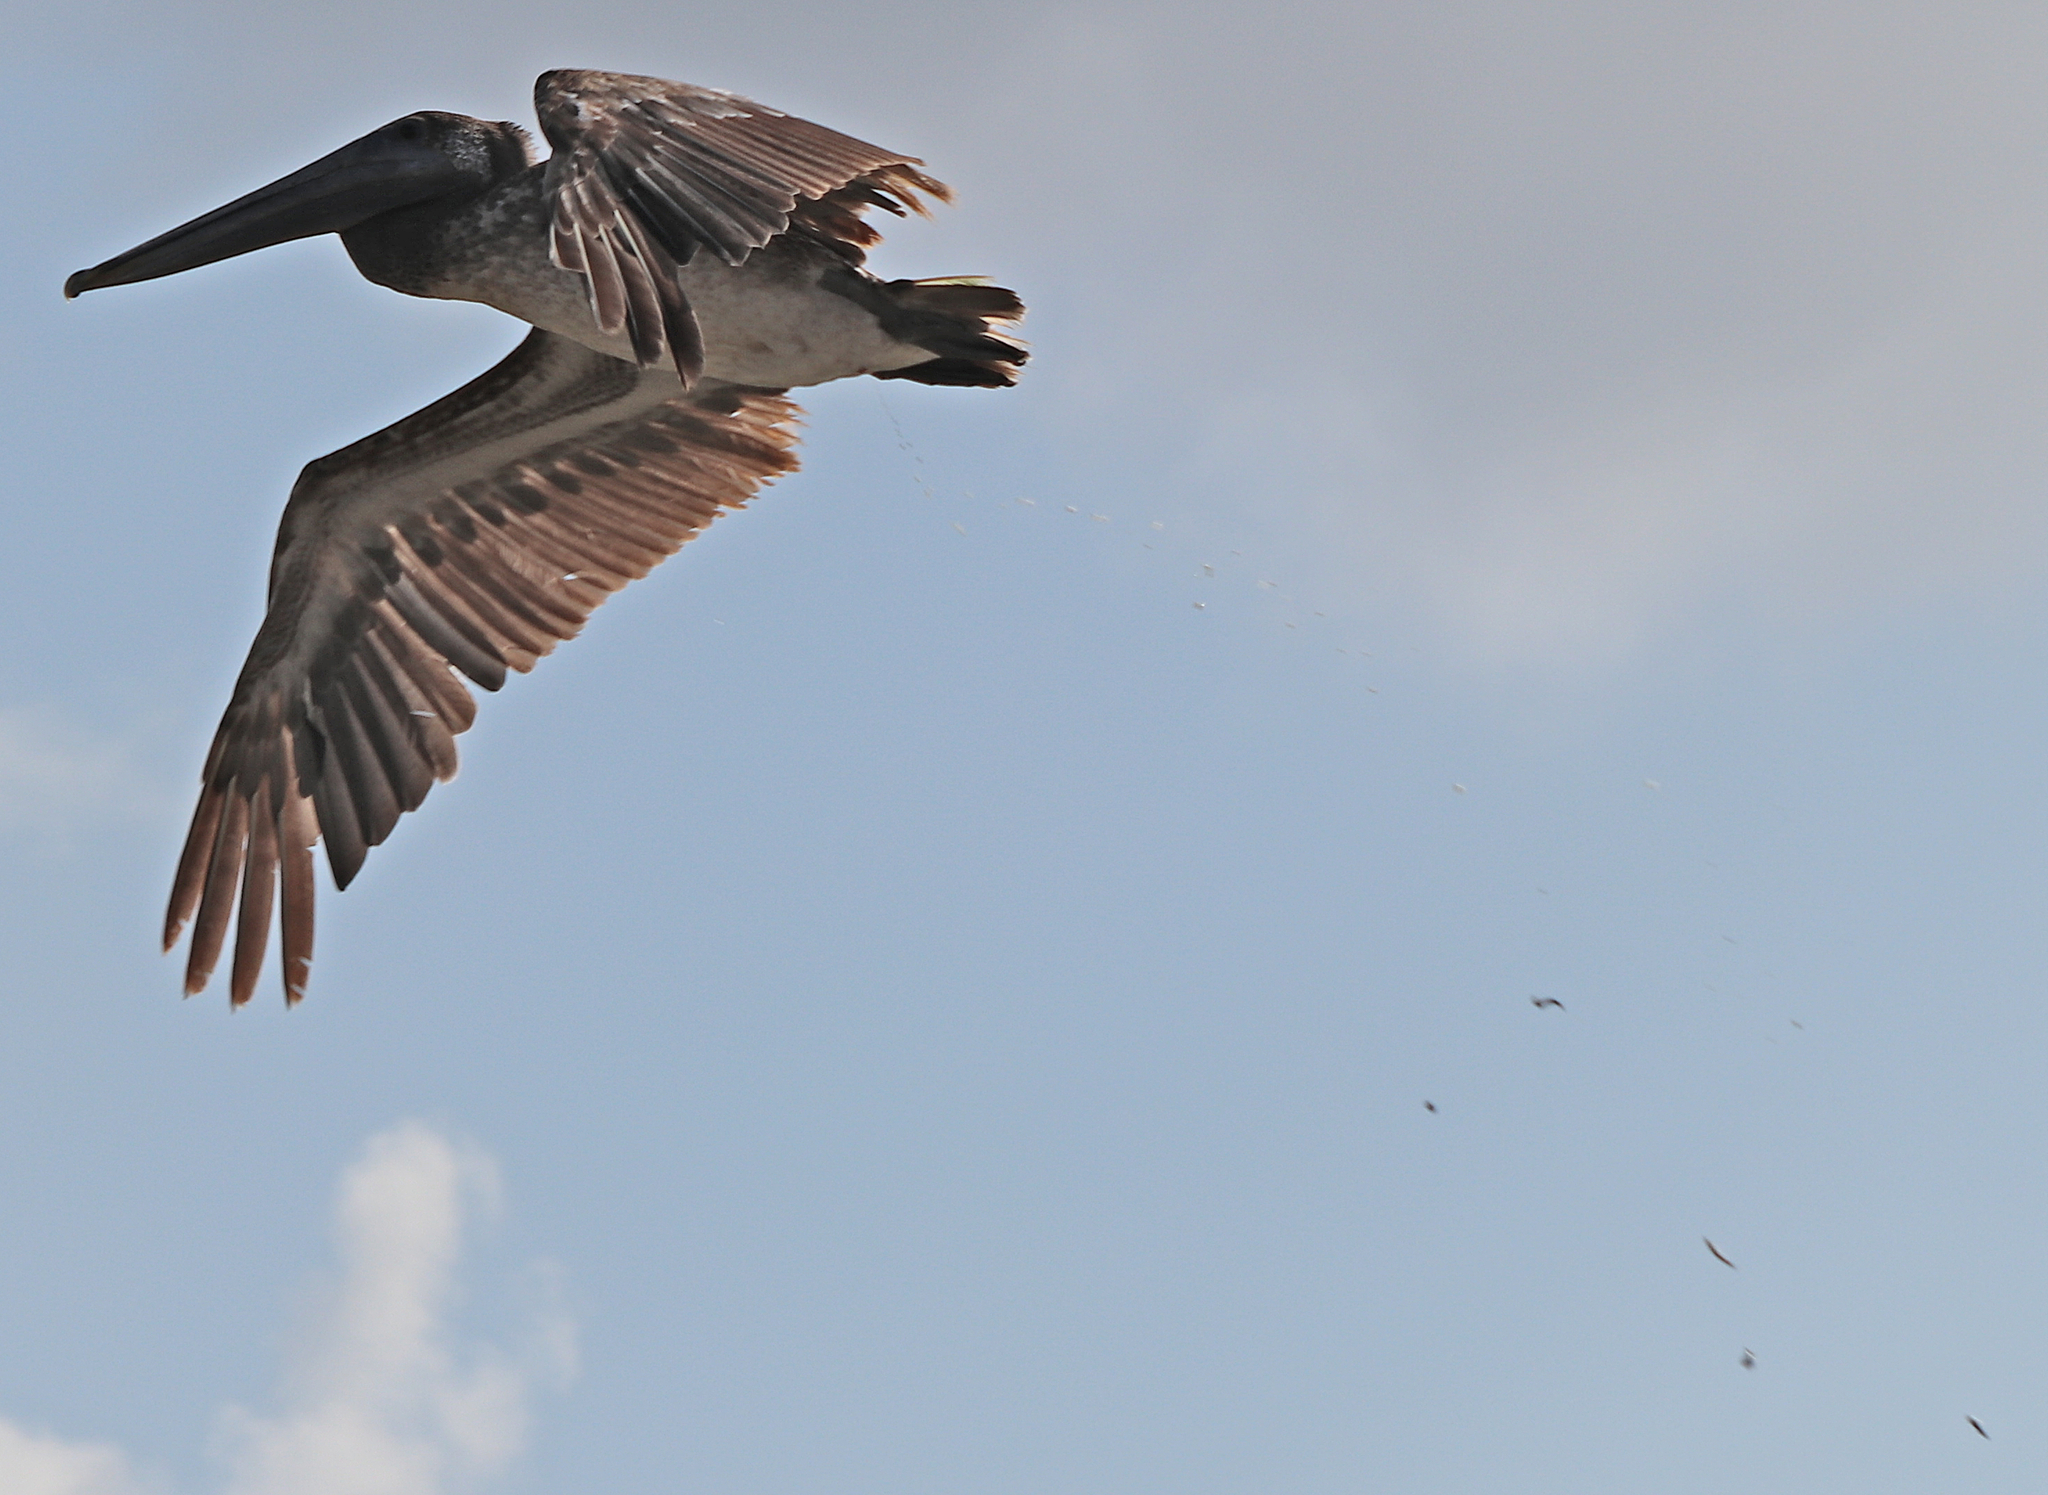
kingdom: Animalia
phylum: Chordata
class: Aves
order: Pelecaniformes
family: Pelecanidae
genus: Pelecanus
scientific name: Pelecanus occidentalis
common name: Brown pelican
